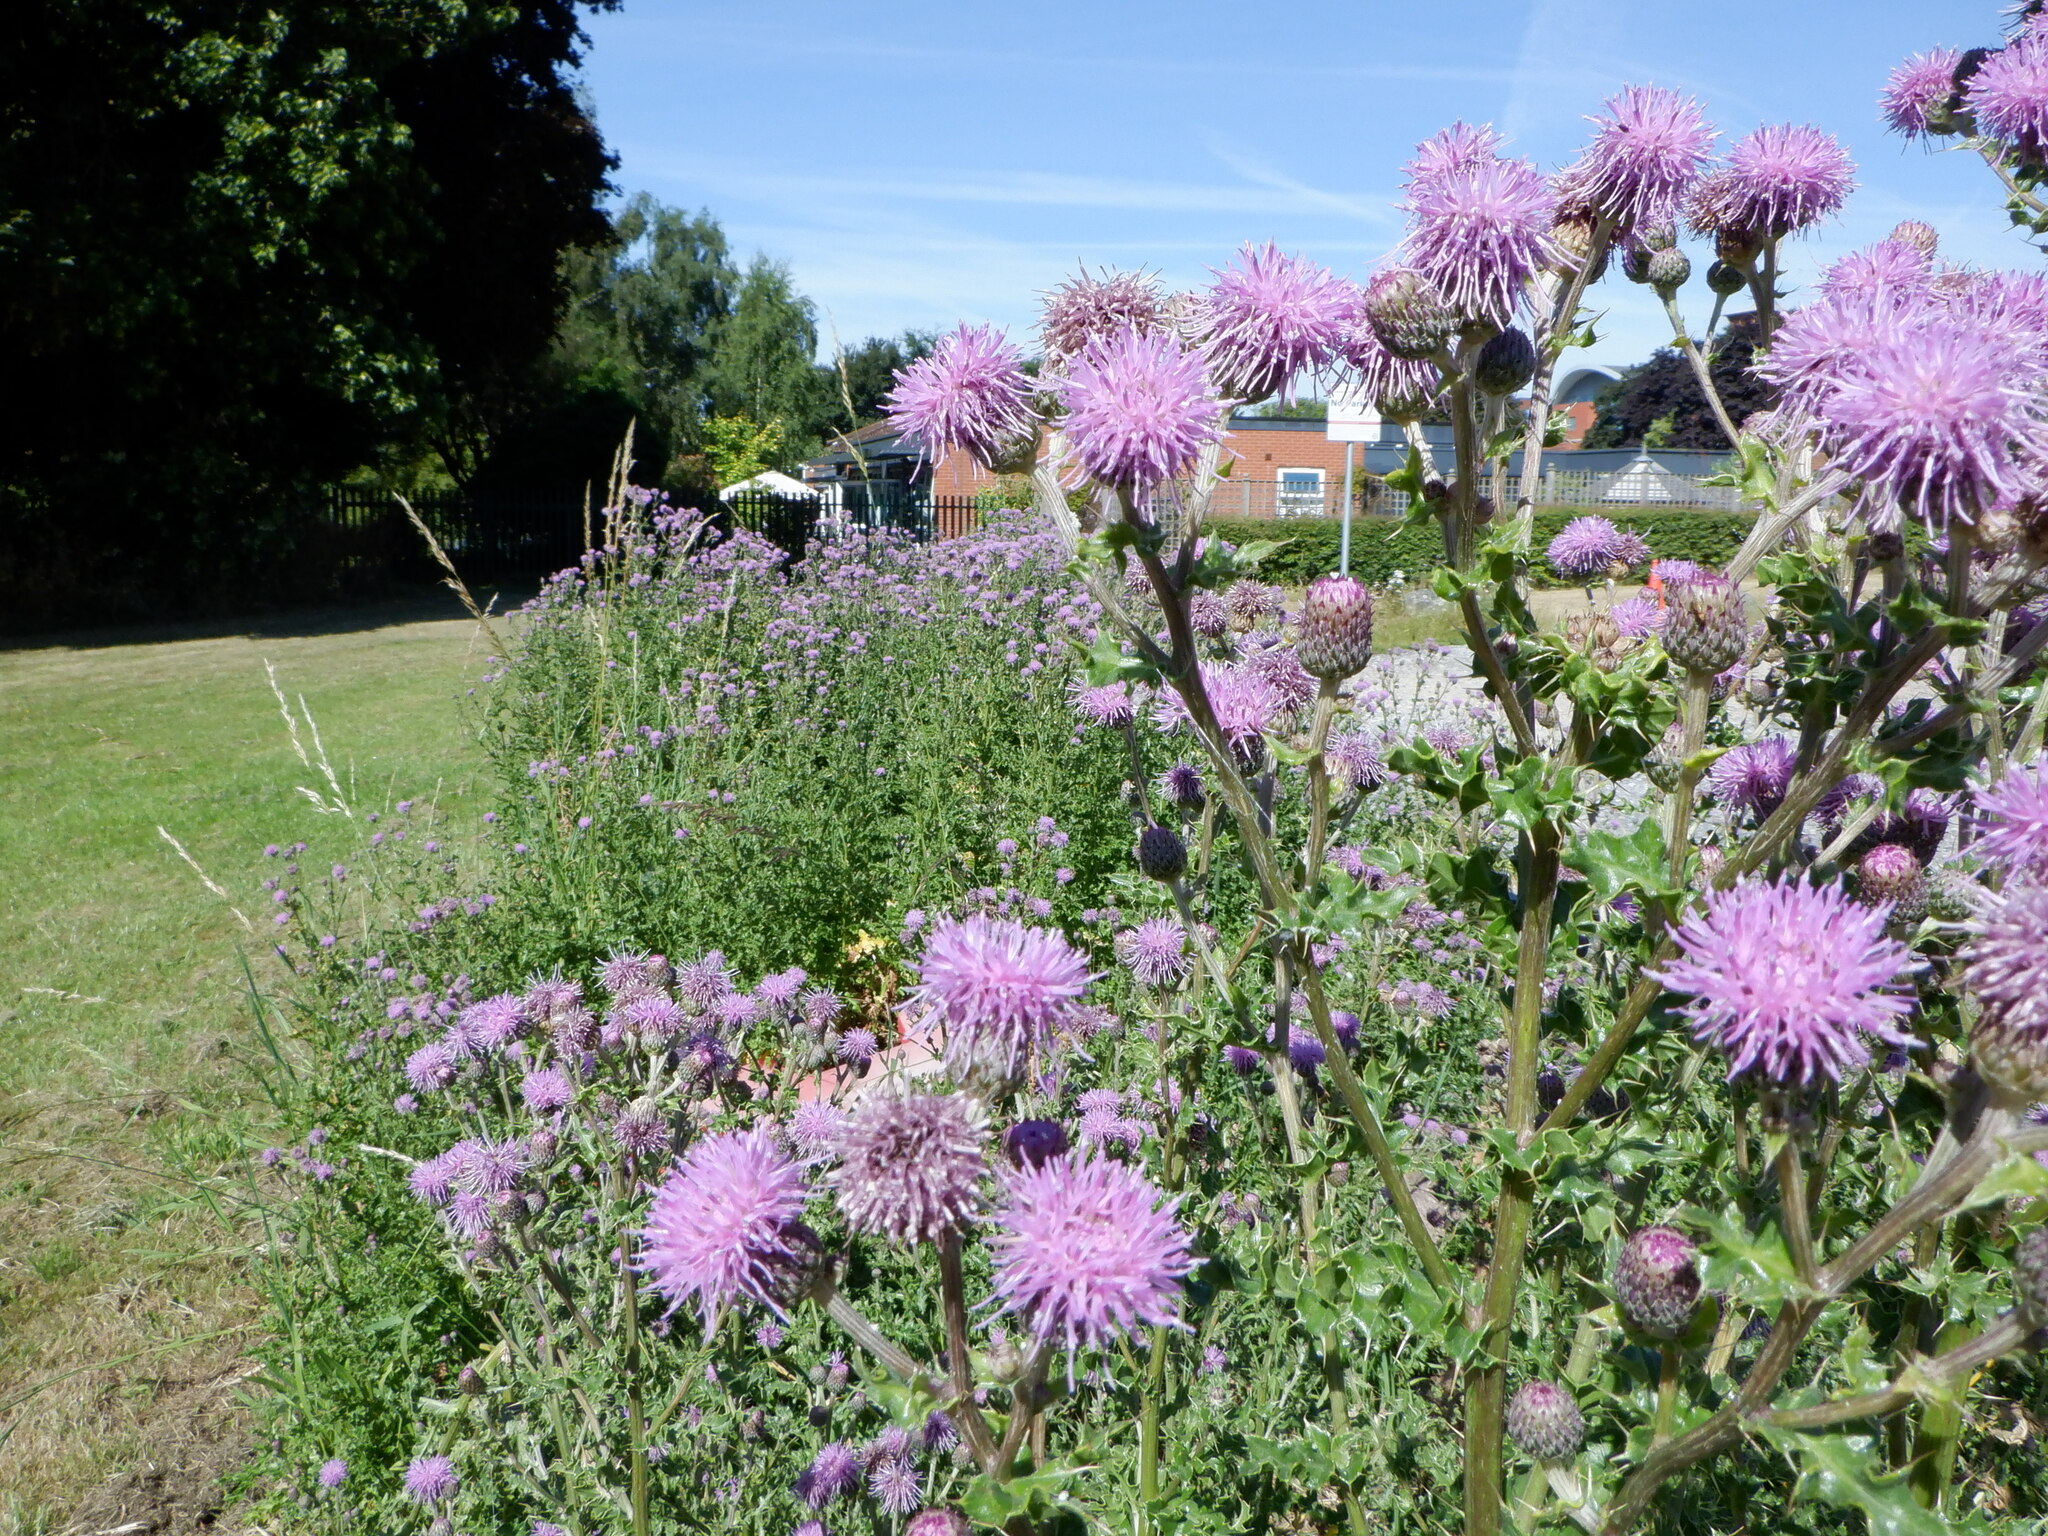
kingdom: Plantae
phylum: Tracheophyta
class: Magnoliopsida
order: Asterales
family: Asteraceae
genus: Cirsium
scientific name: Cirsium arvense
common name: Creeping thistle
